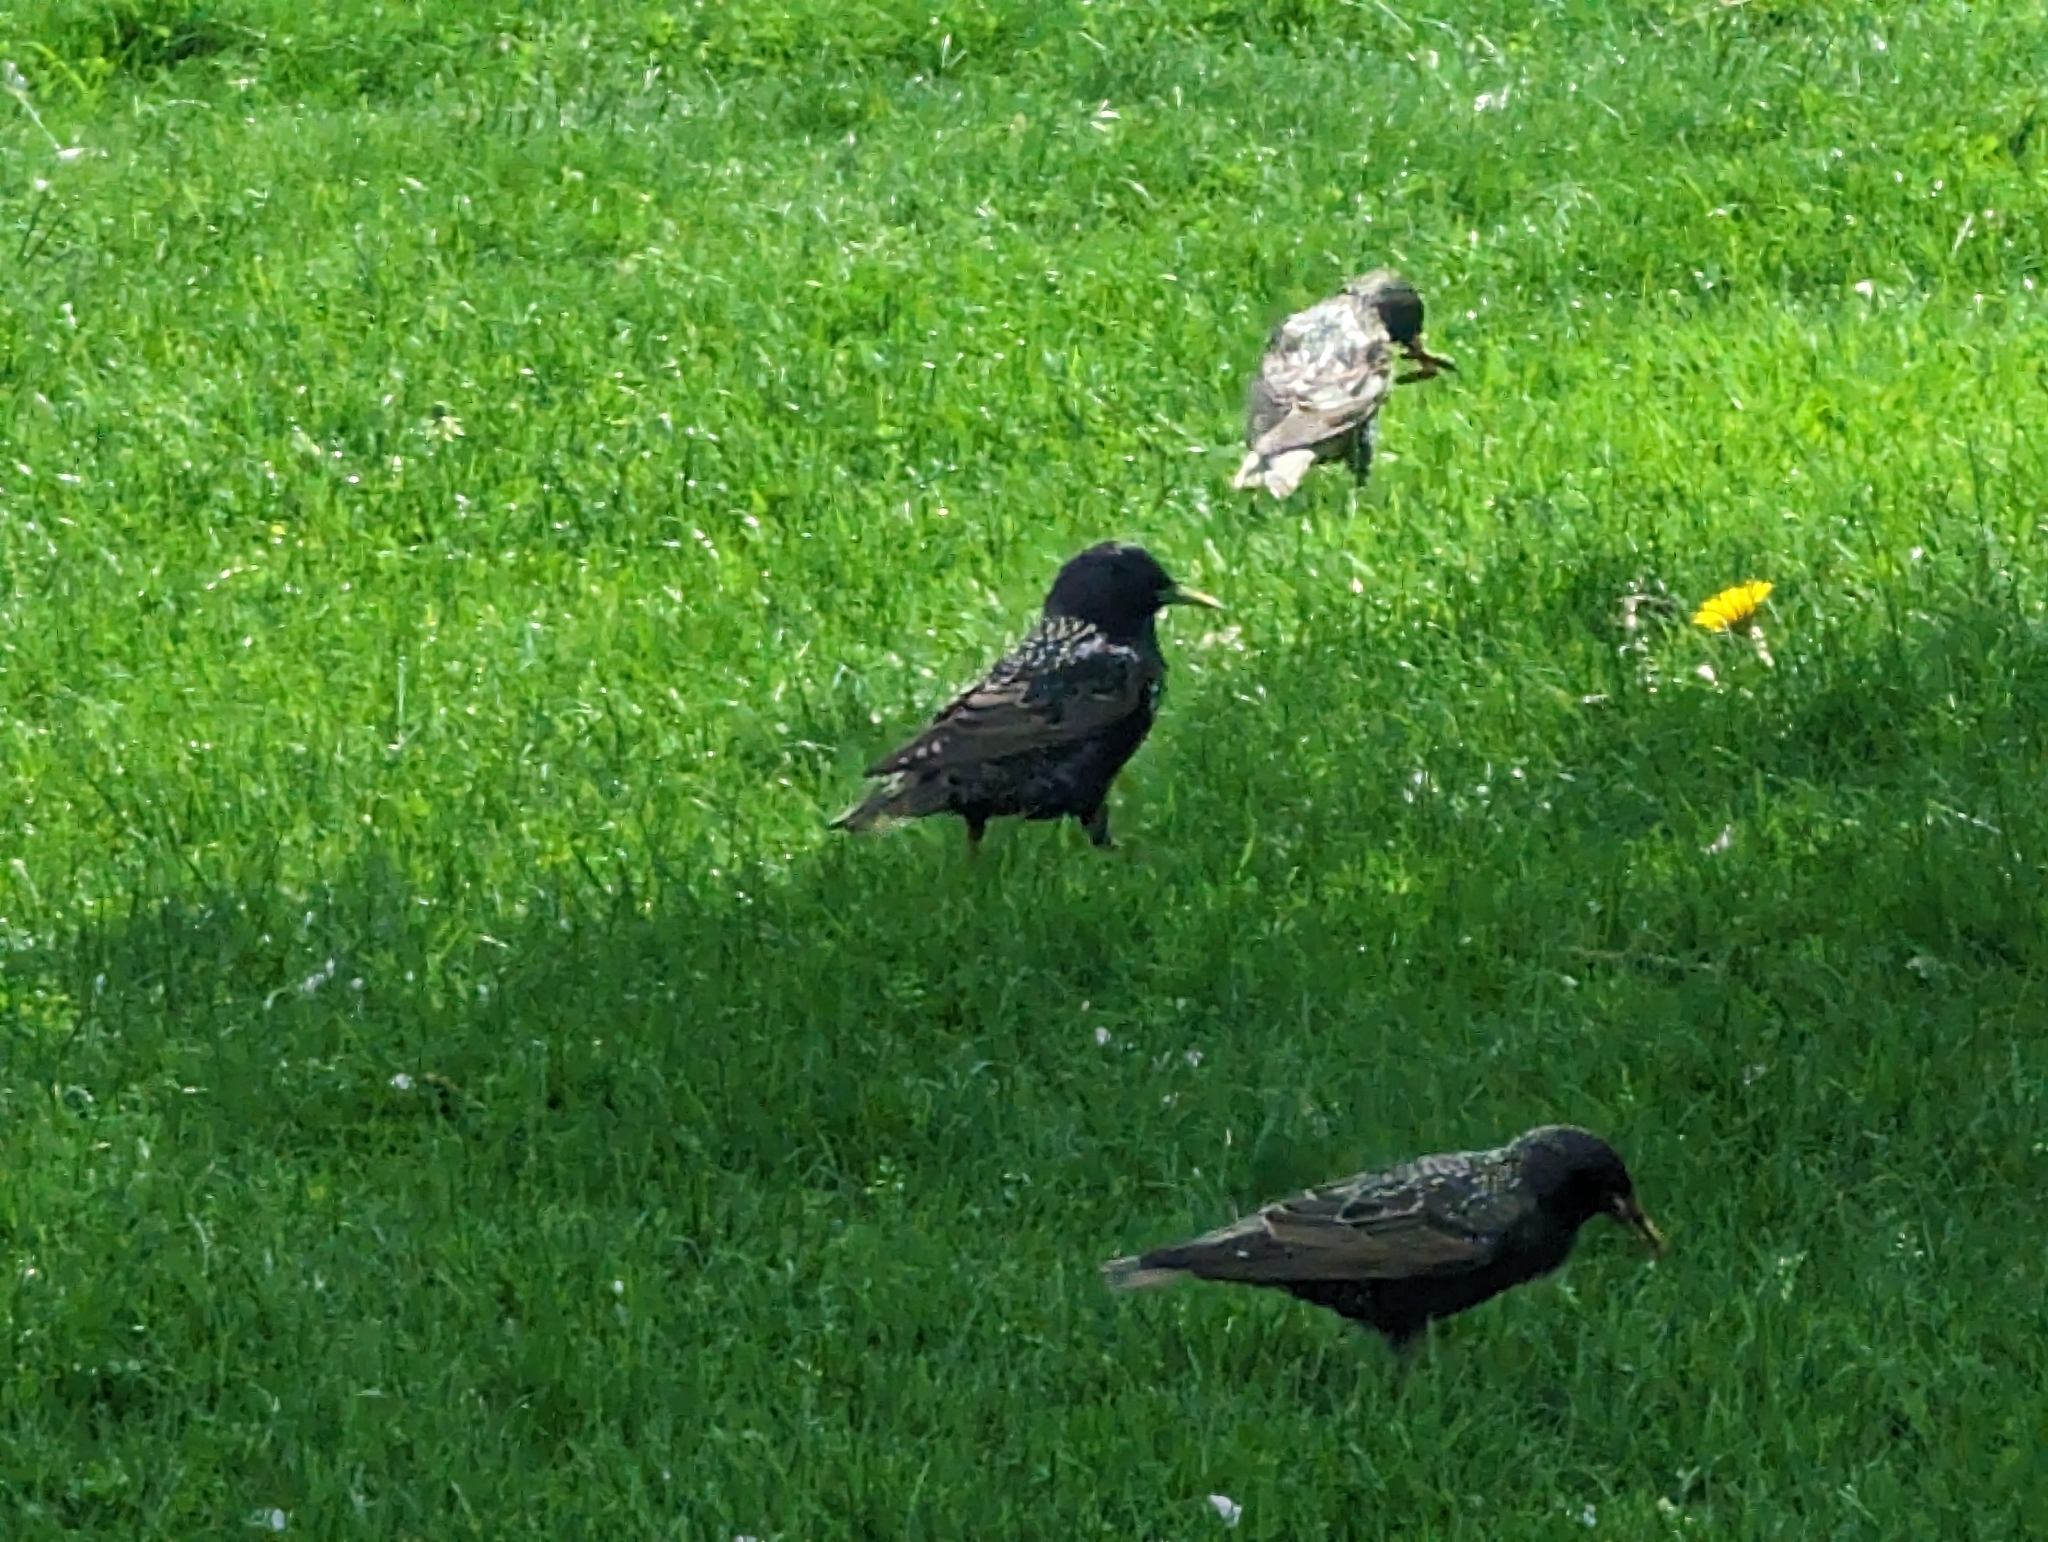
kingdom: Animalia
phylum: Chordata
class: Aves
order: Passeriformes
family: Sturnidae
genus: Sturnus
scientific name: Sturnus vulgaris
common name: Common starling
